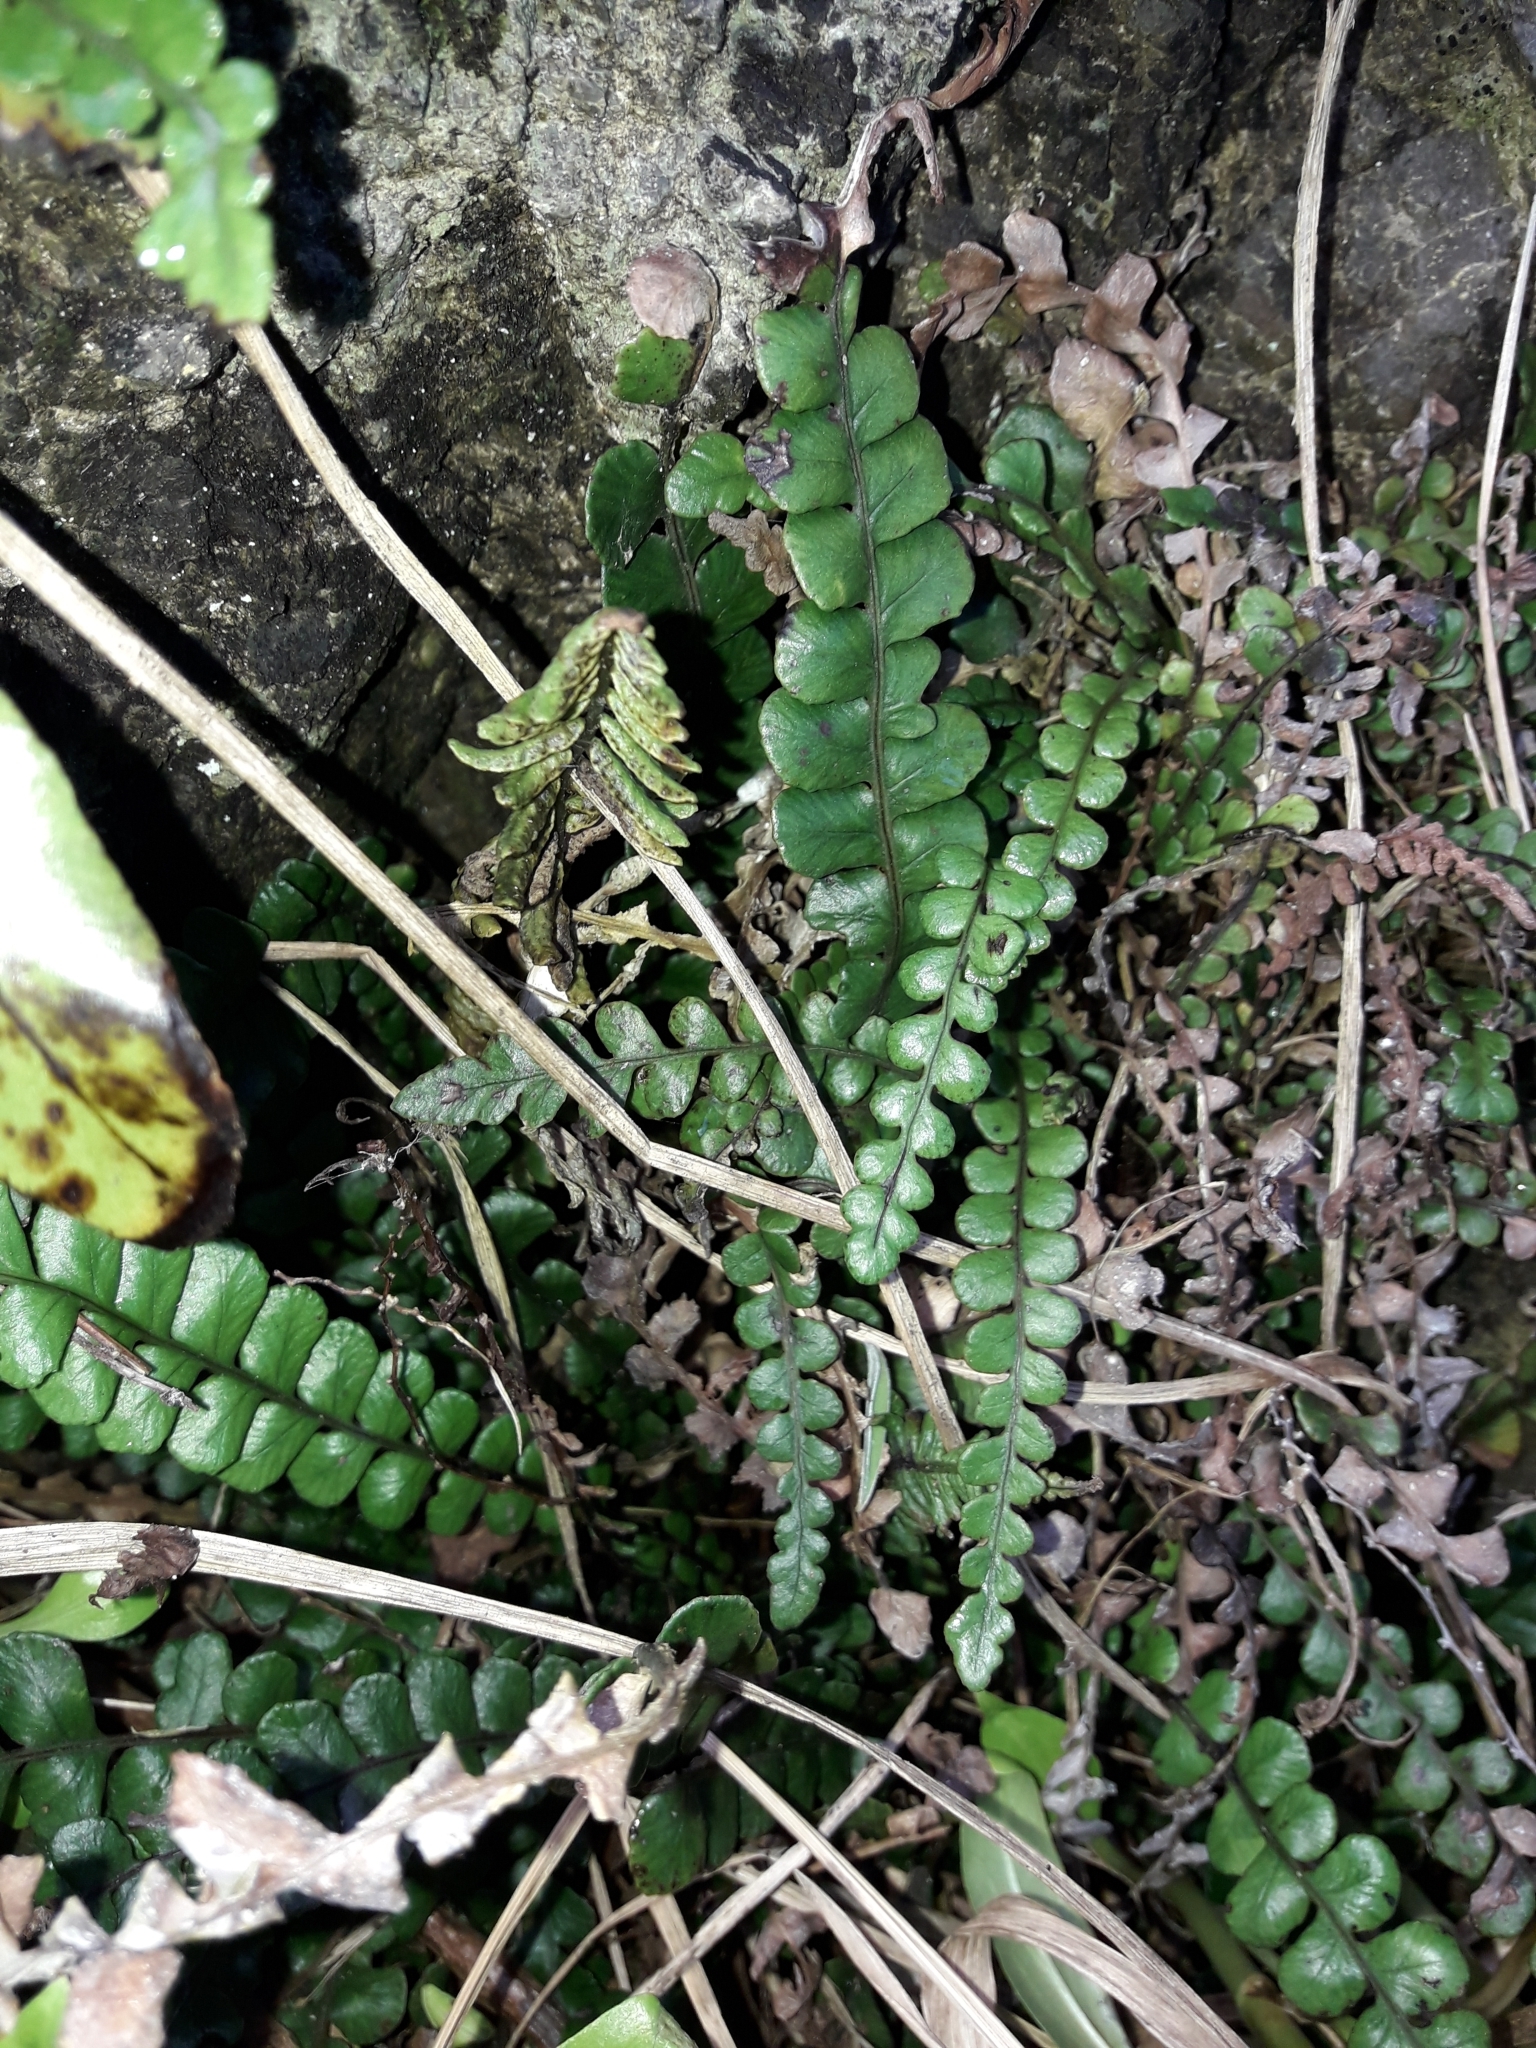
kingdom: Plantae
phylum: Tracheophyta
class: Polypodiopsida
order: Polypodiales
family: Blechnaceae
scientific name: Blechnaceae
